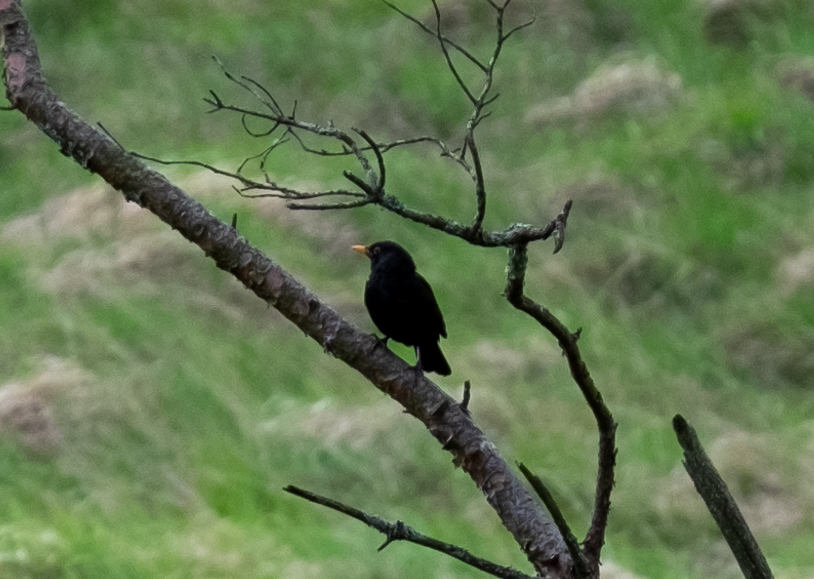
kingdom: Animalia
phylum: Chordata
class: Aves
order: Passeriformes
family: Turdidae
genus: Turdus
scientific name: Turdus merula
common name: Common blackbird
